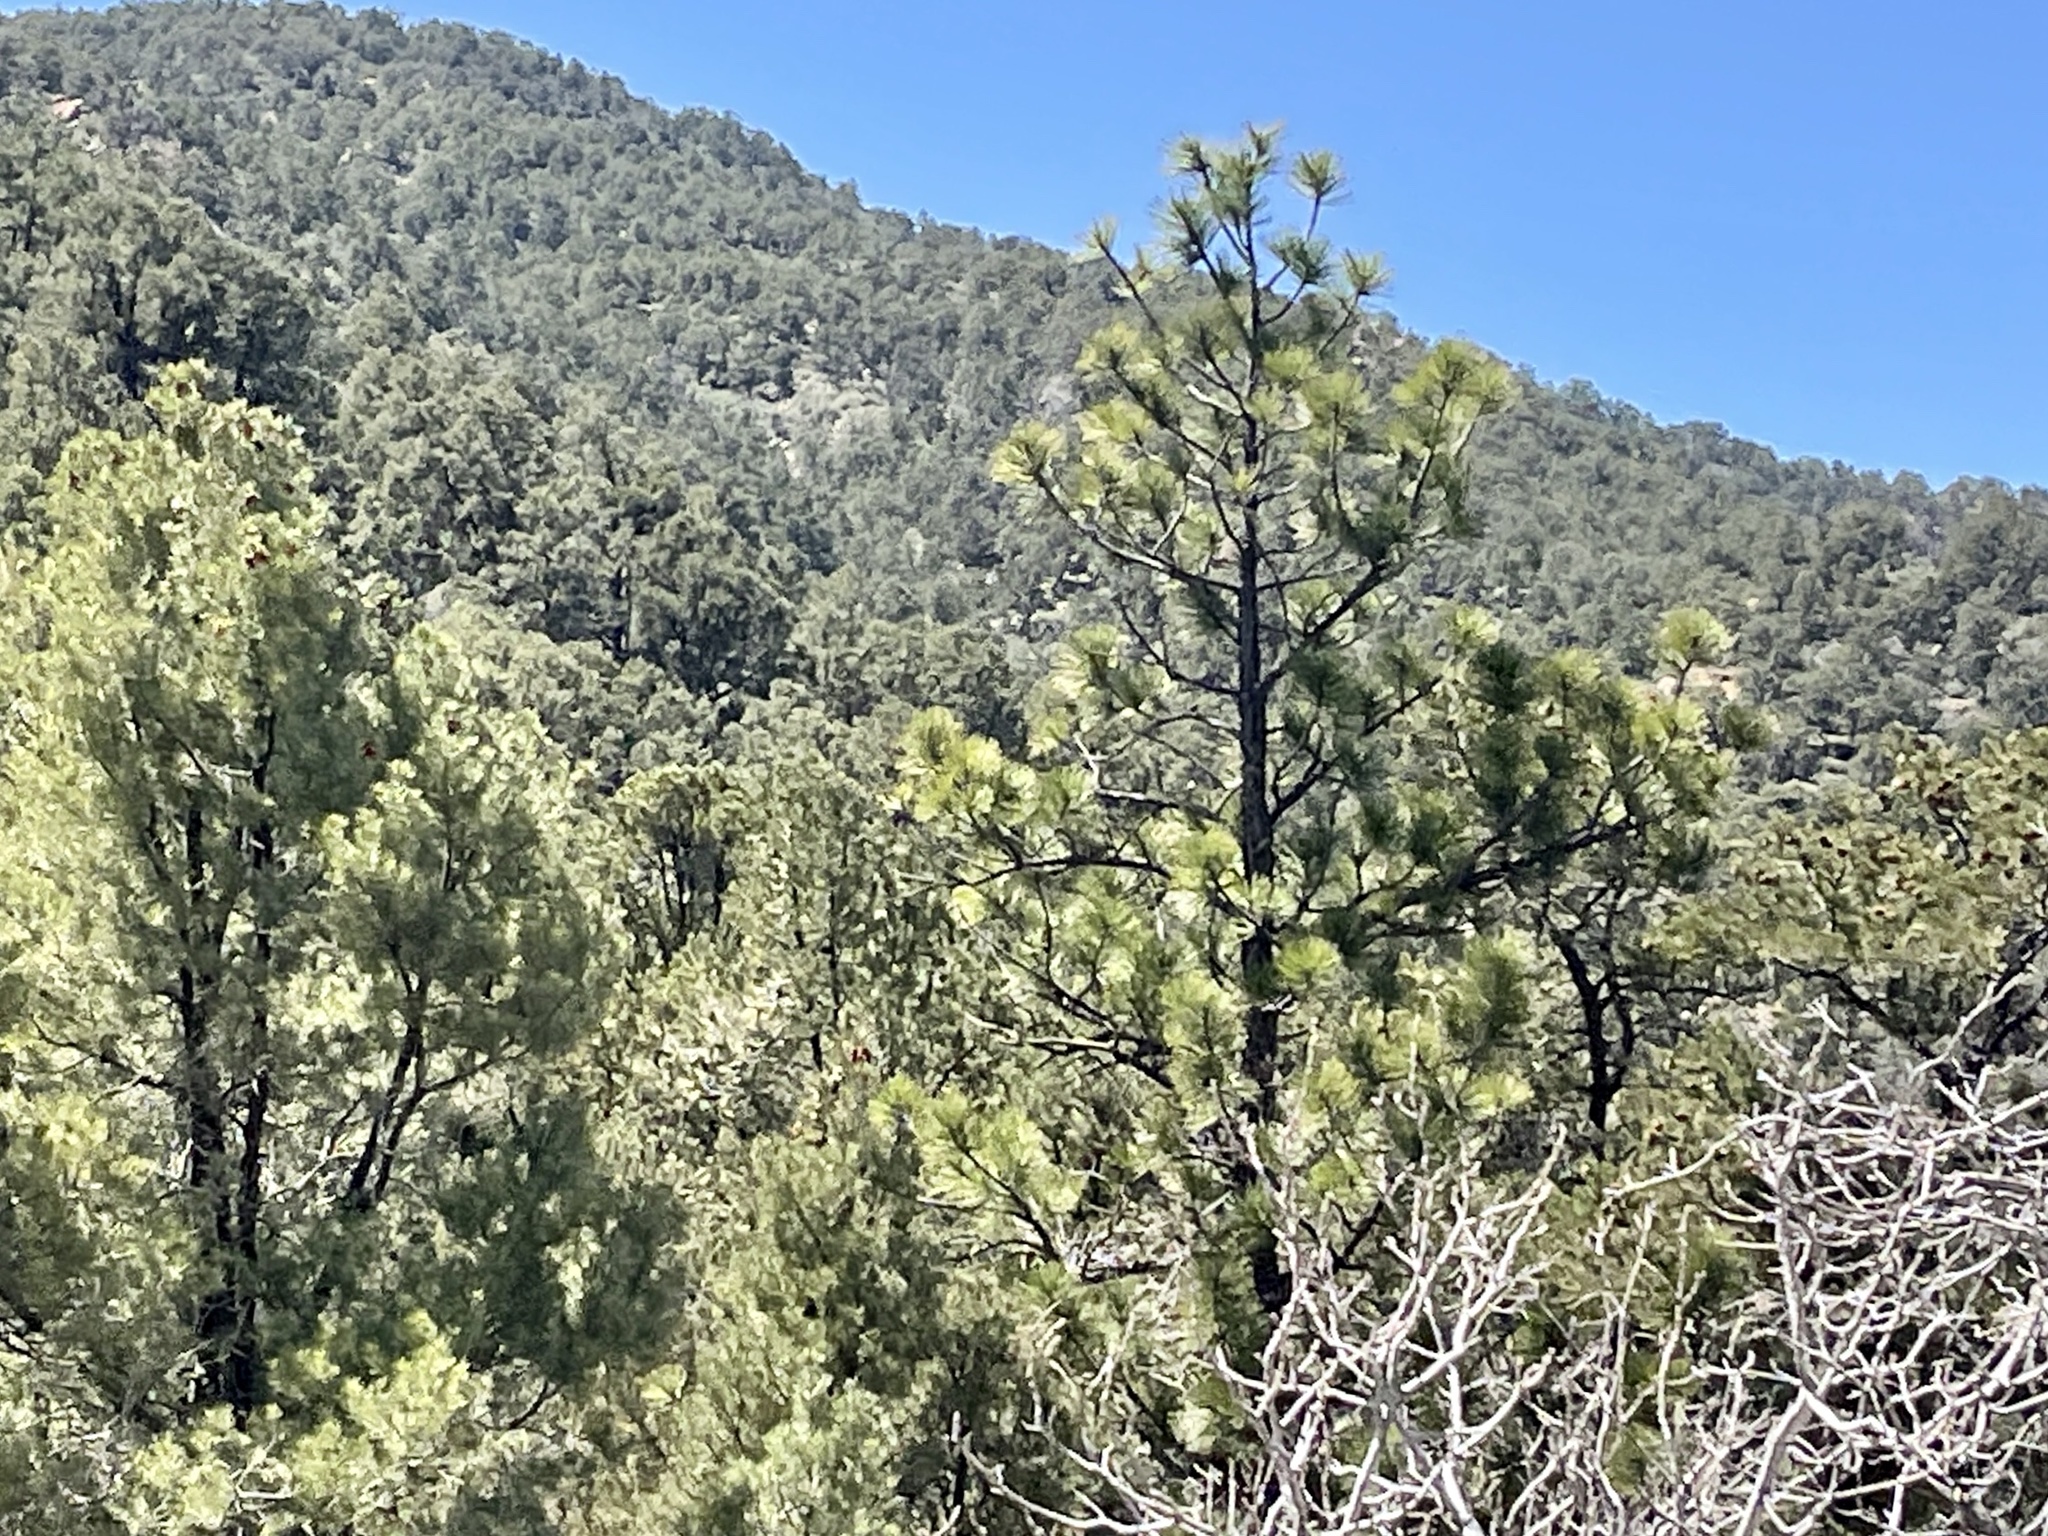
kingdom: Plantae
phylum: Tracheophyta
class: Pinopsida
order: Pinales
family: Pinaceae
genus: Pinus
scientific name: Pinus ponderosa
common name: Western yellow-pine
